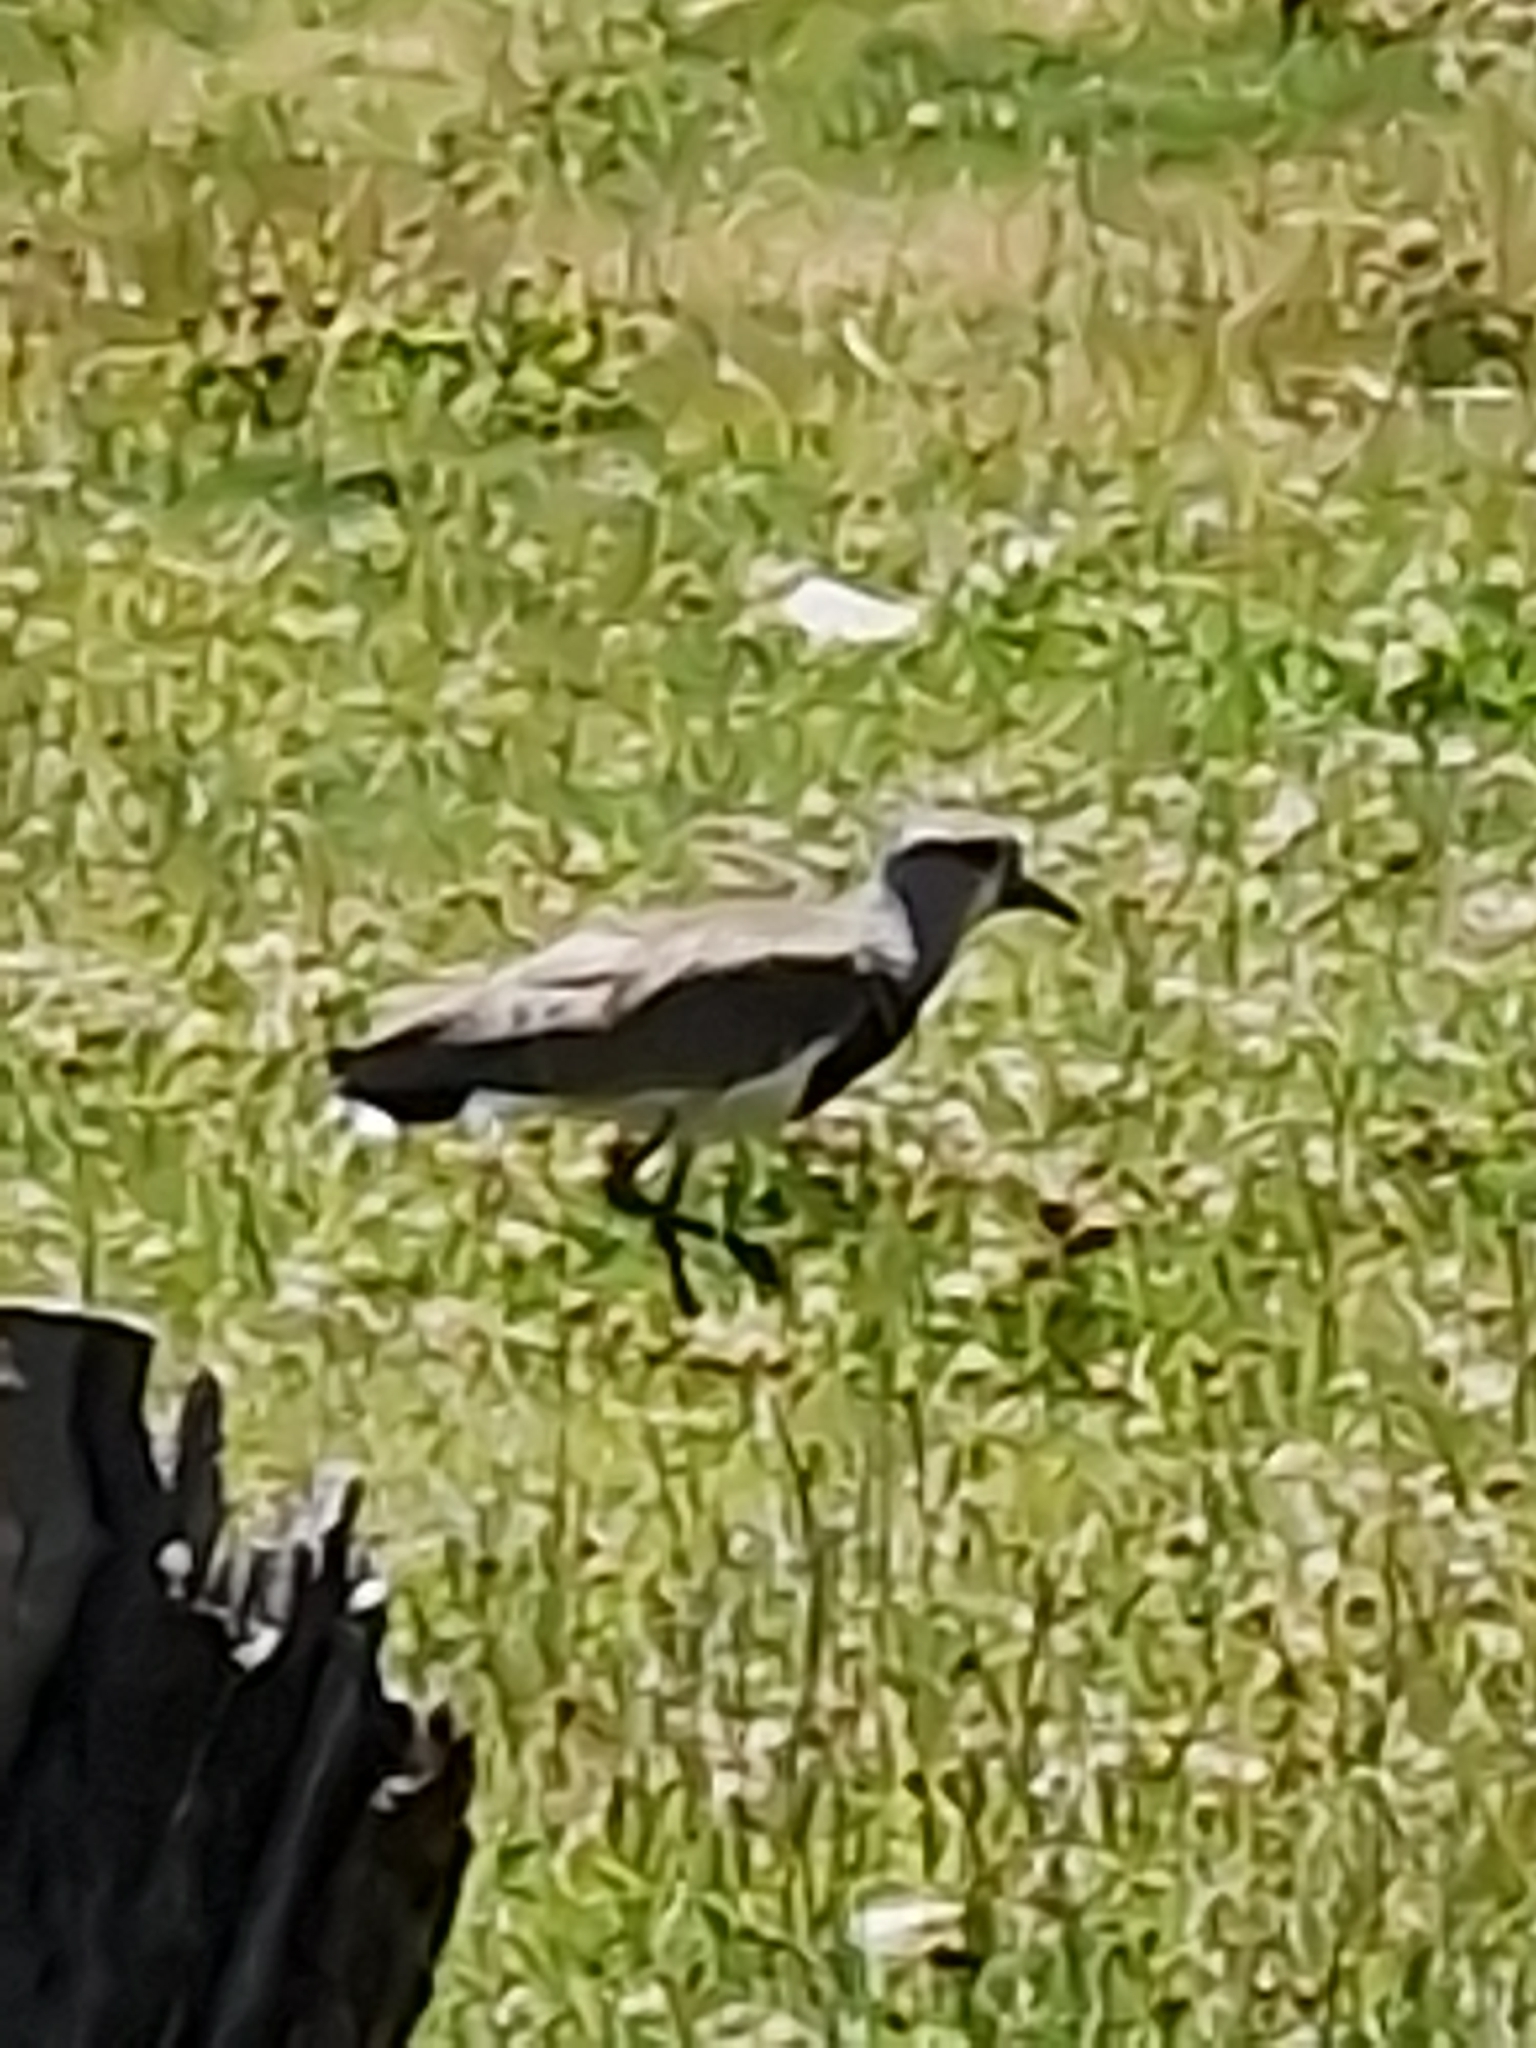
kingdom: Animalia
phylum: Chordata
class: Aves
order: Charadriiformes
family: Charadriidae
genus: Vanellus
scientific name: Vanellus chilensis
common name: Southern lapwing
